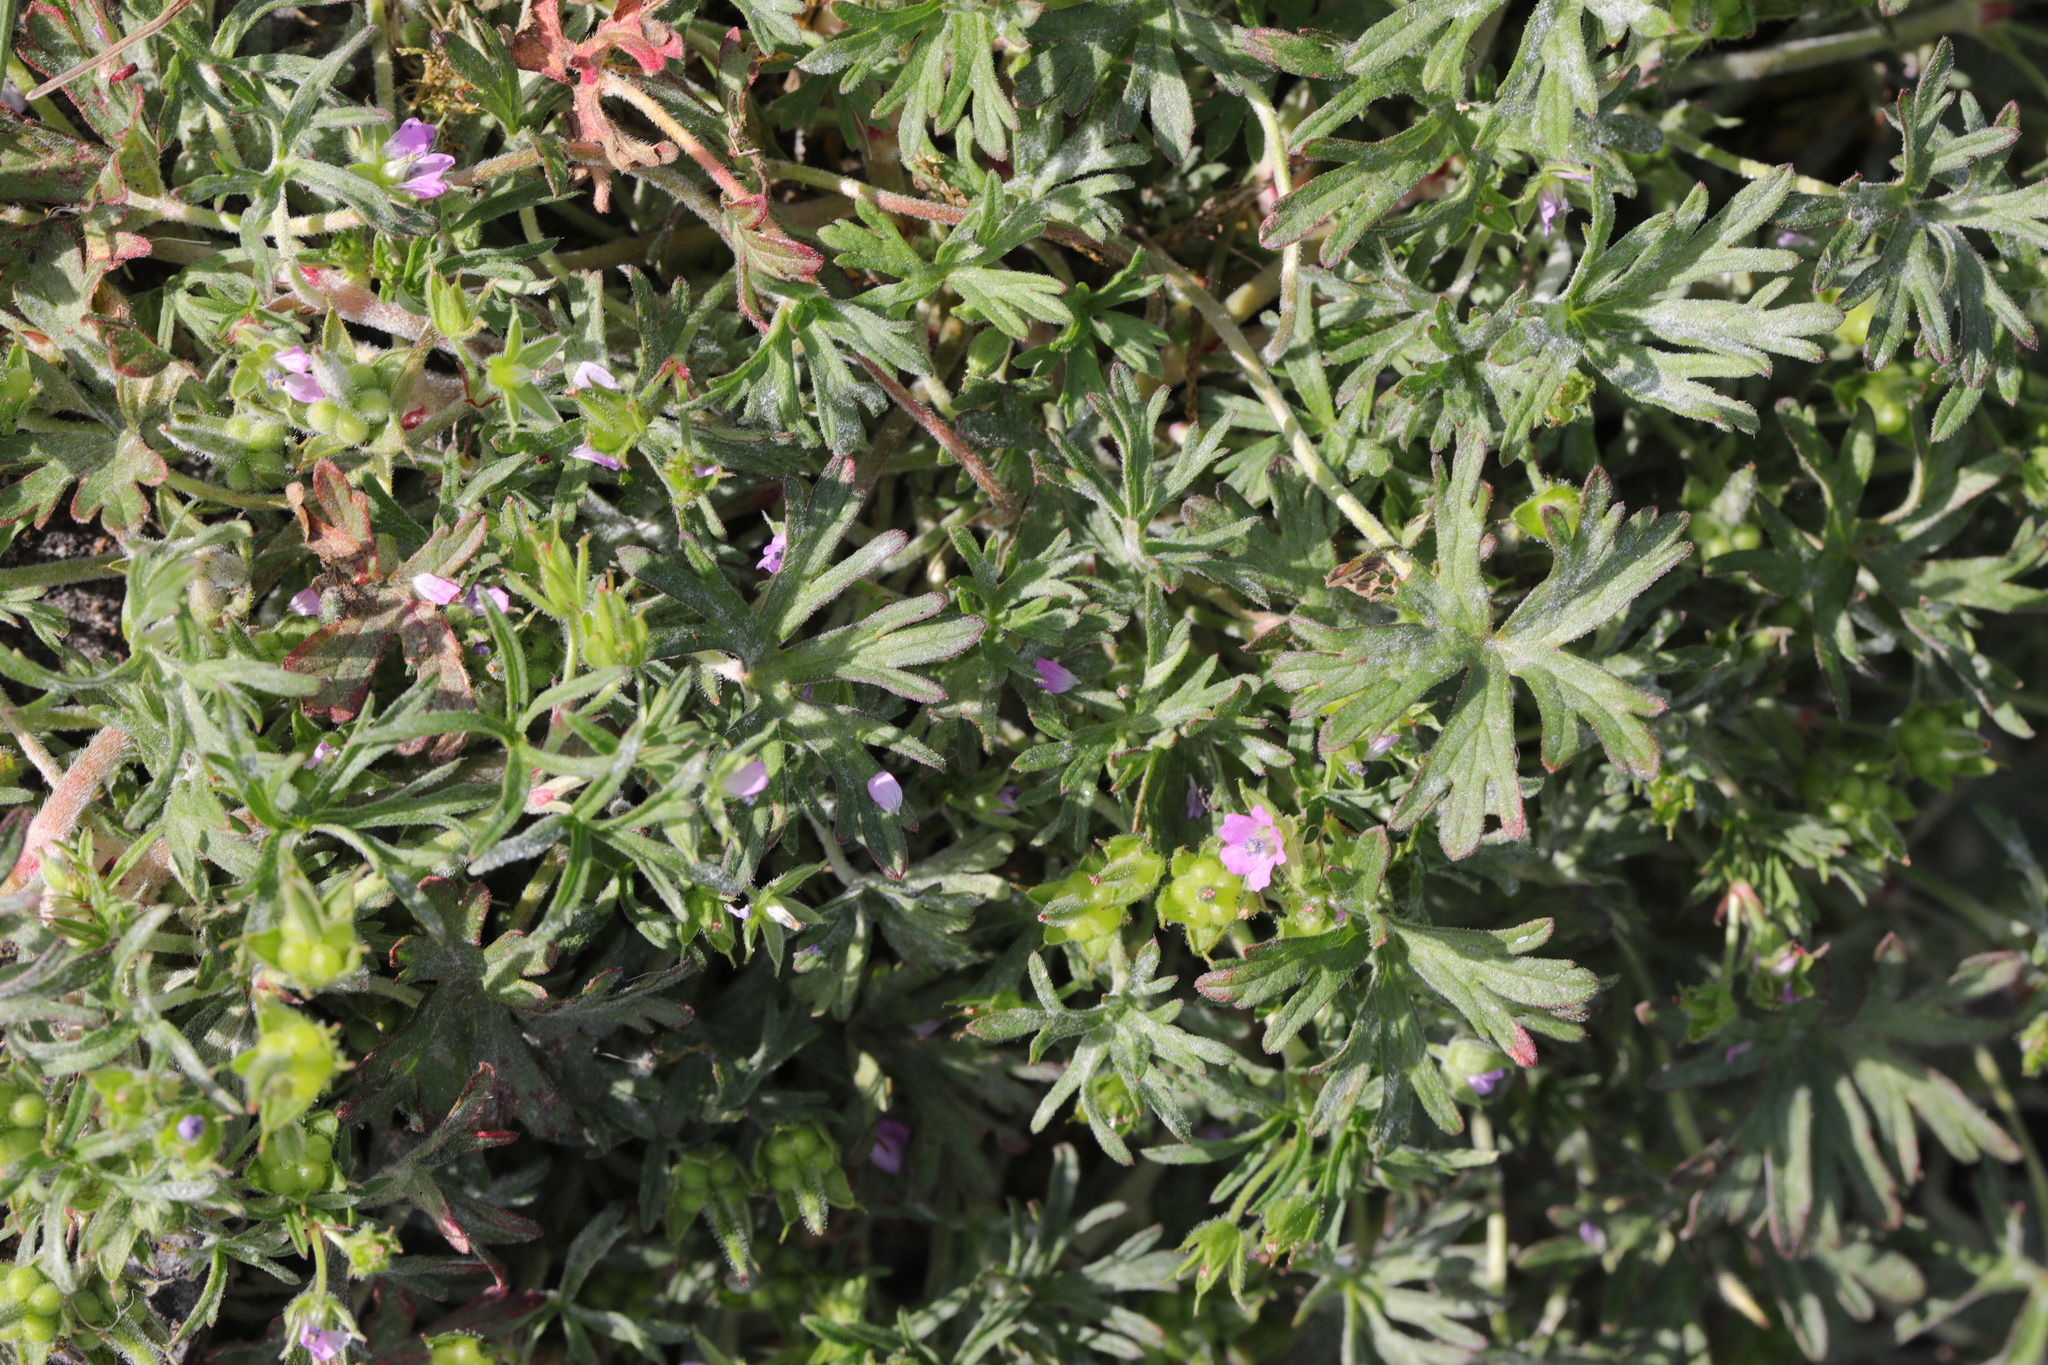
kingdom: Plantae
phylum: Tracheophyta
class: Magnoliopsida
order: Geraniales
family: Geraniaceae
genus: Geranium
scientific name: Geranium dissectum
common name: Cut-leaved crane's-bill
